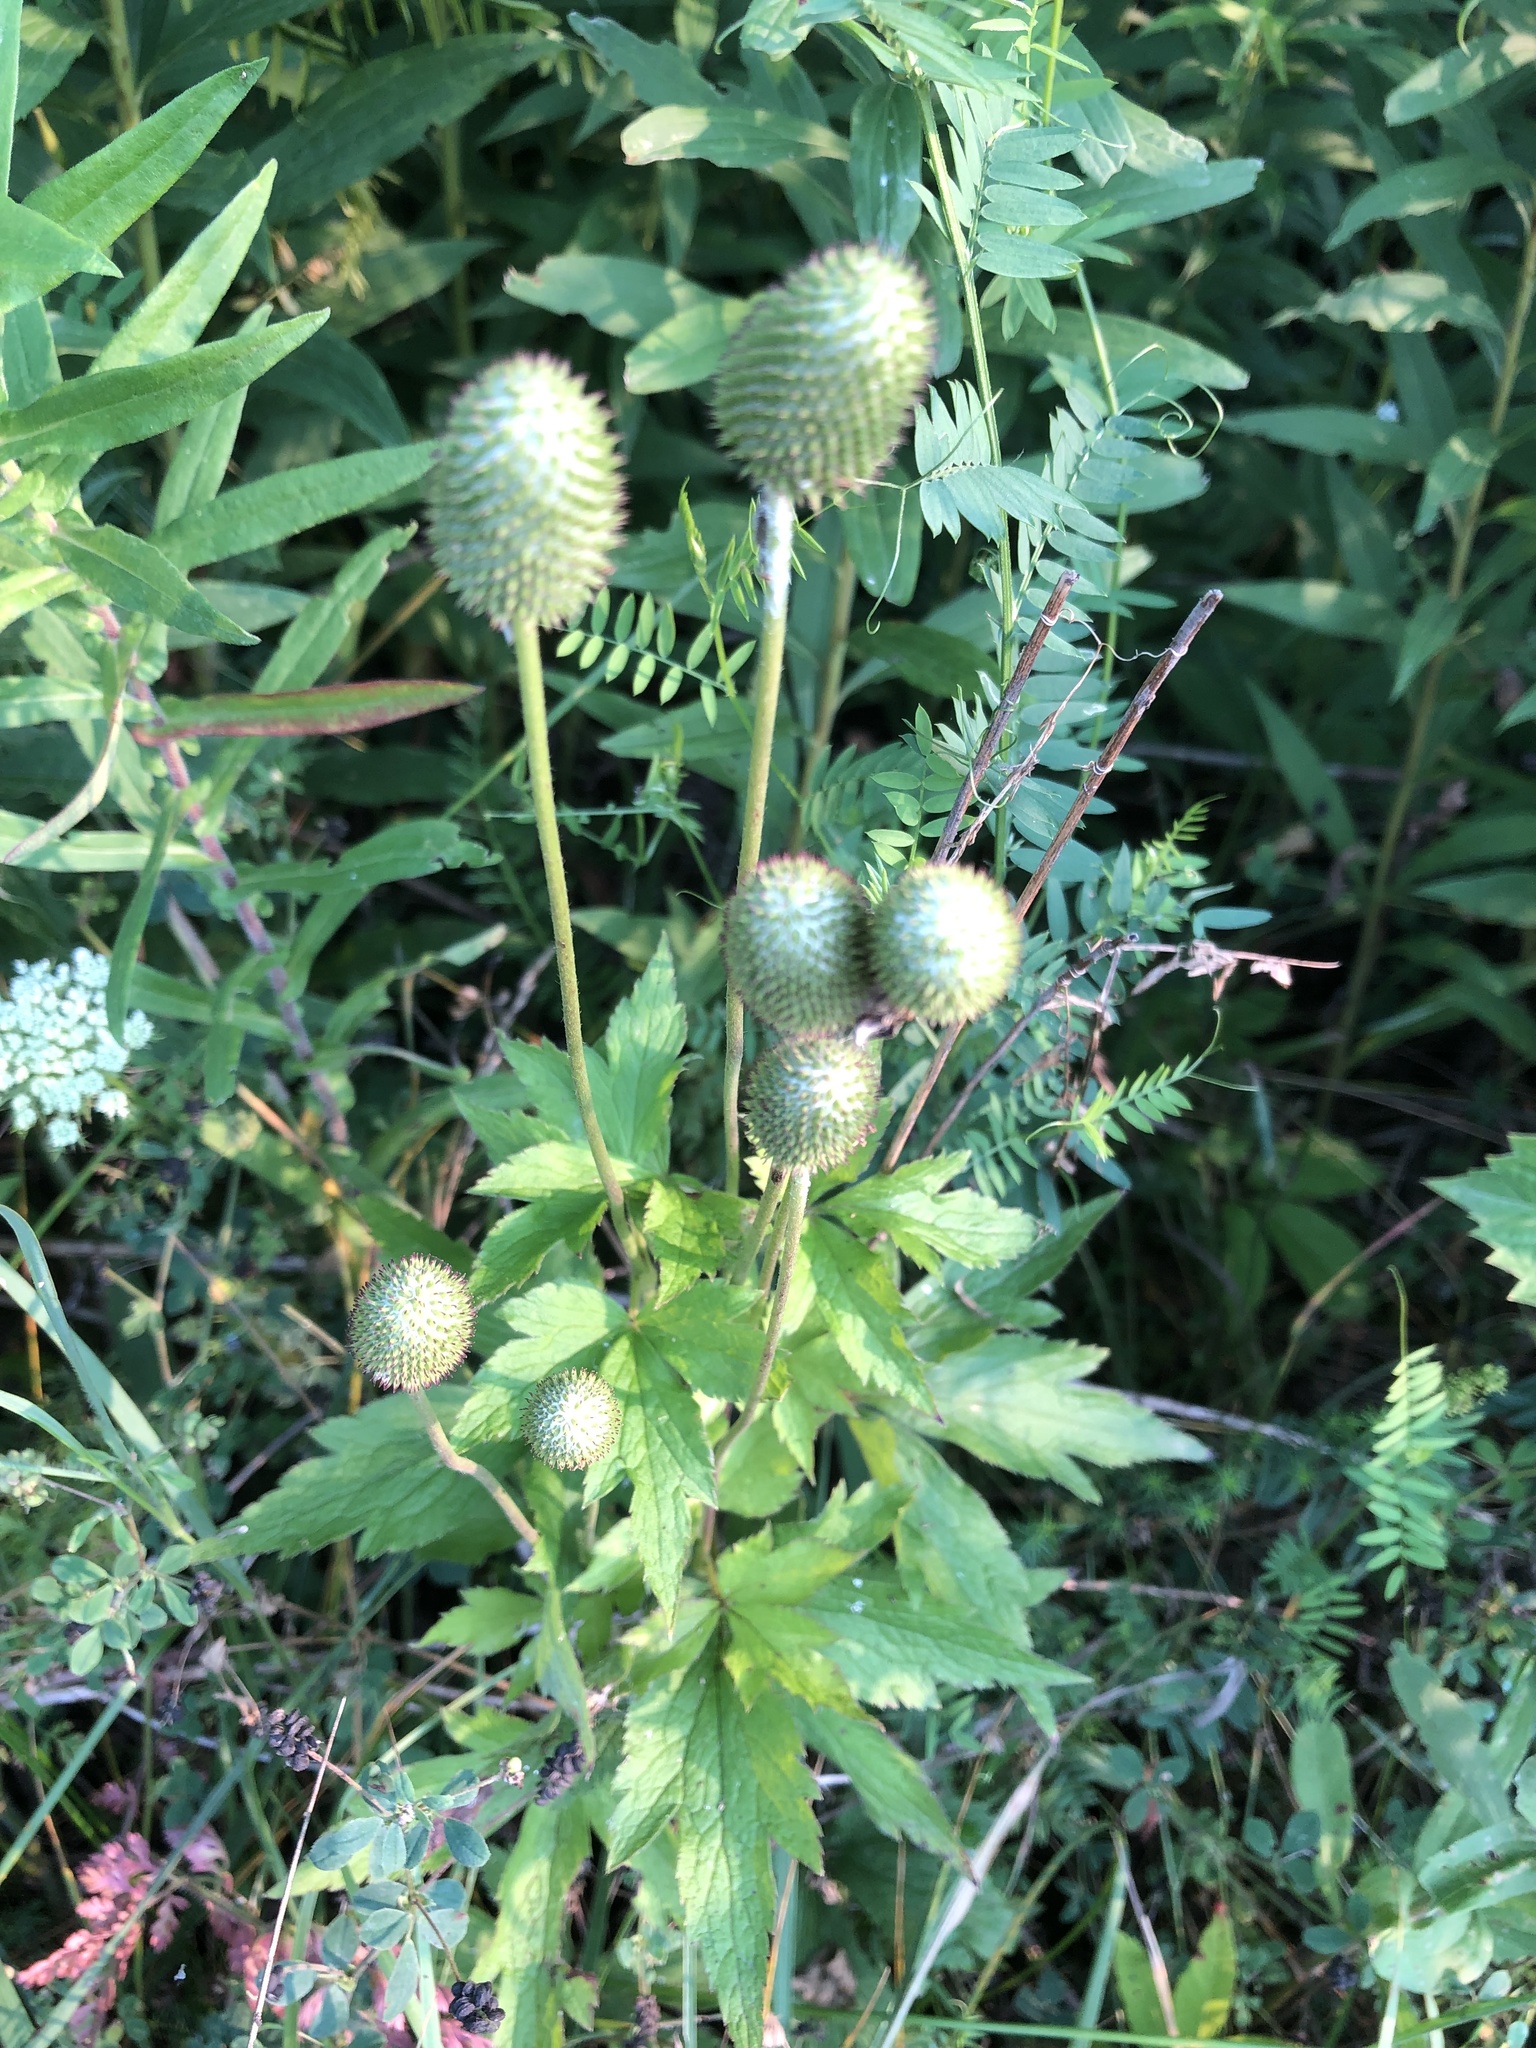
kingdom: Plantae
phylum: Tracheophyta
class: Magnoliopsida
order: Ranunculales
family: Ranunculaceae
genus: Anemone
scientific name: Anemone virginiana
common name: Tall anemone
